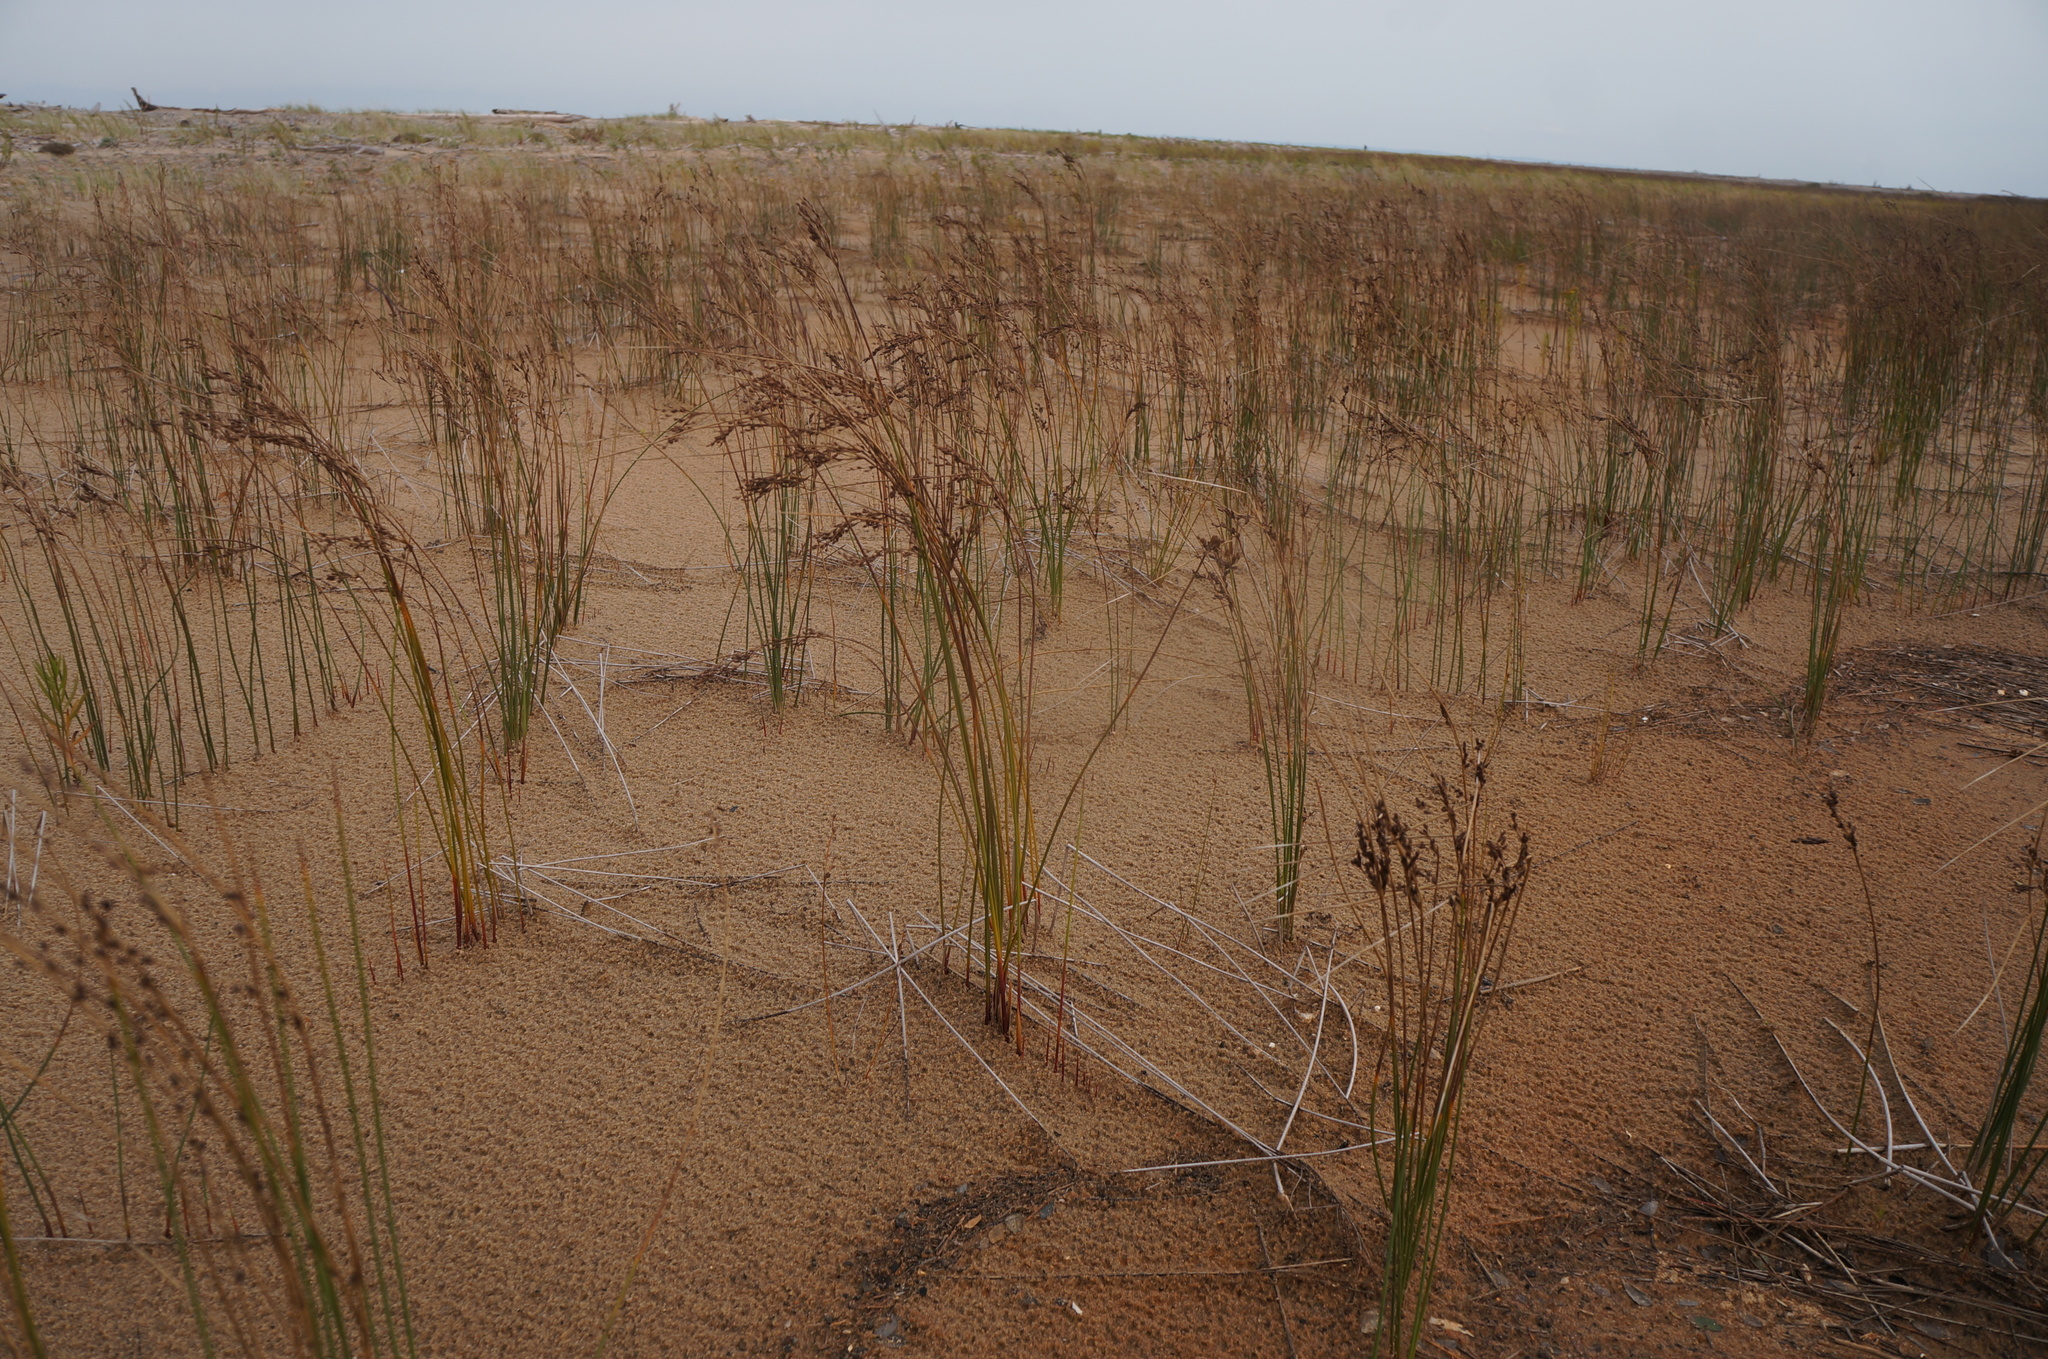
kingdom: Plantae
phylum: Tracheophyta
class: Liliopsida
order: Poales
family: Juncaceae
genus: Juncus
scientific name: Juncus balticus
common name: Baltic rush
